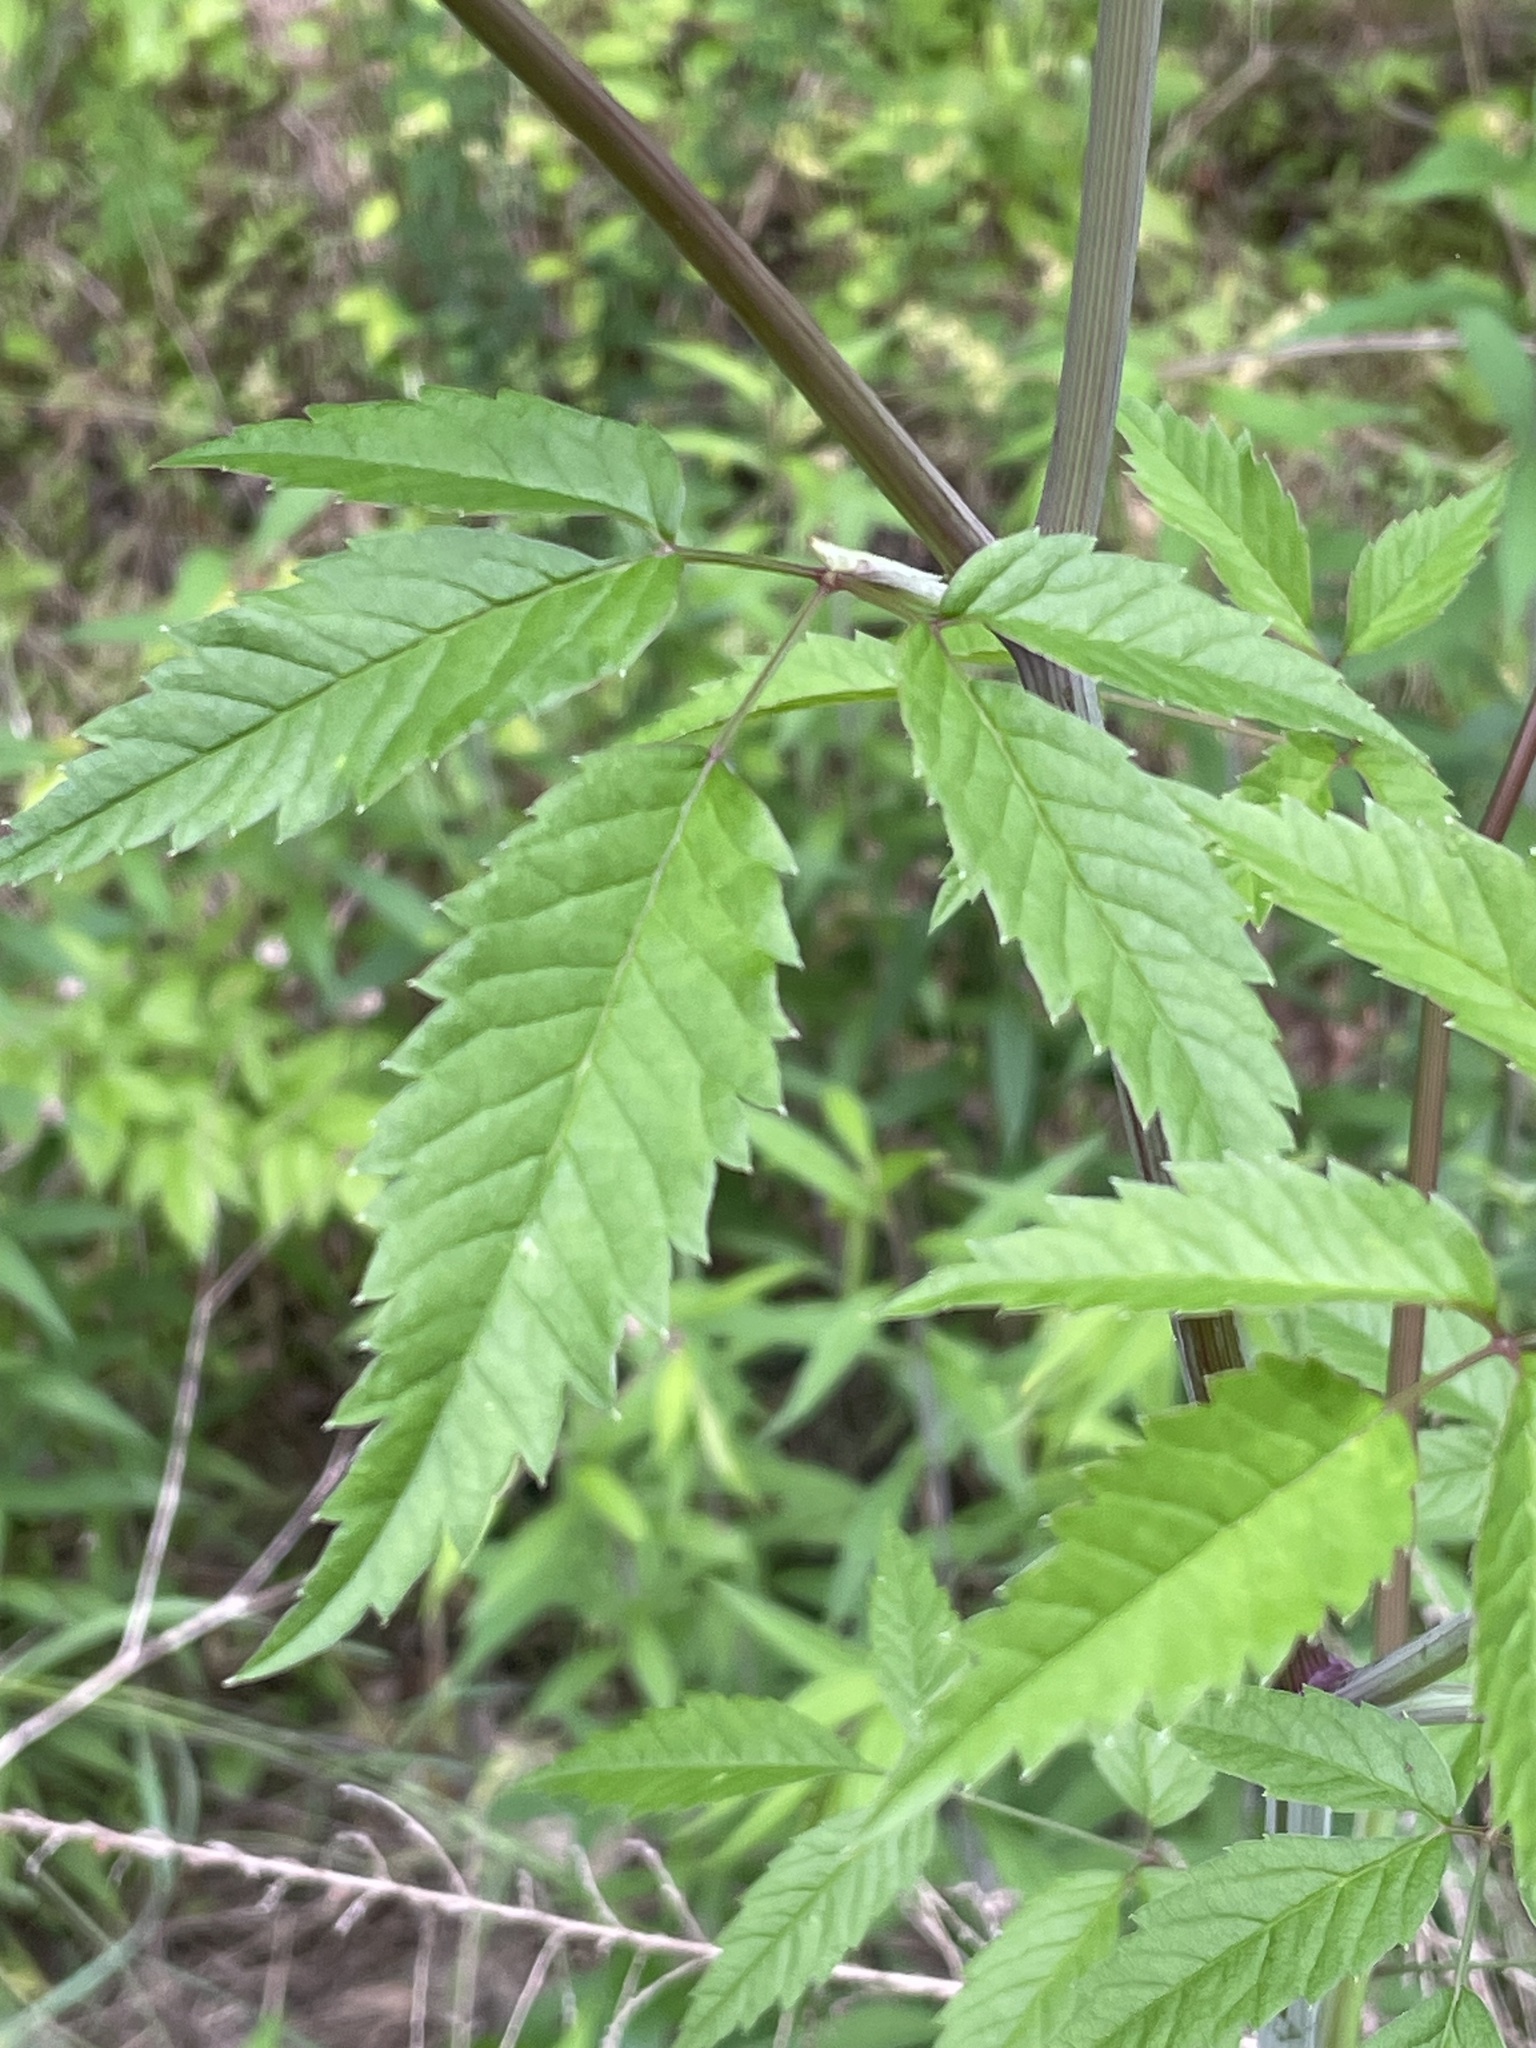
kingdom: Plantae
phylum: Tracheophyta
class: Magnoliopsida
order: Apiales
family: Apiaceae
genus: Cicuta
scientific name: Cicuta maculata
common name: Spotted cowbane
